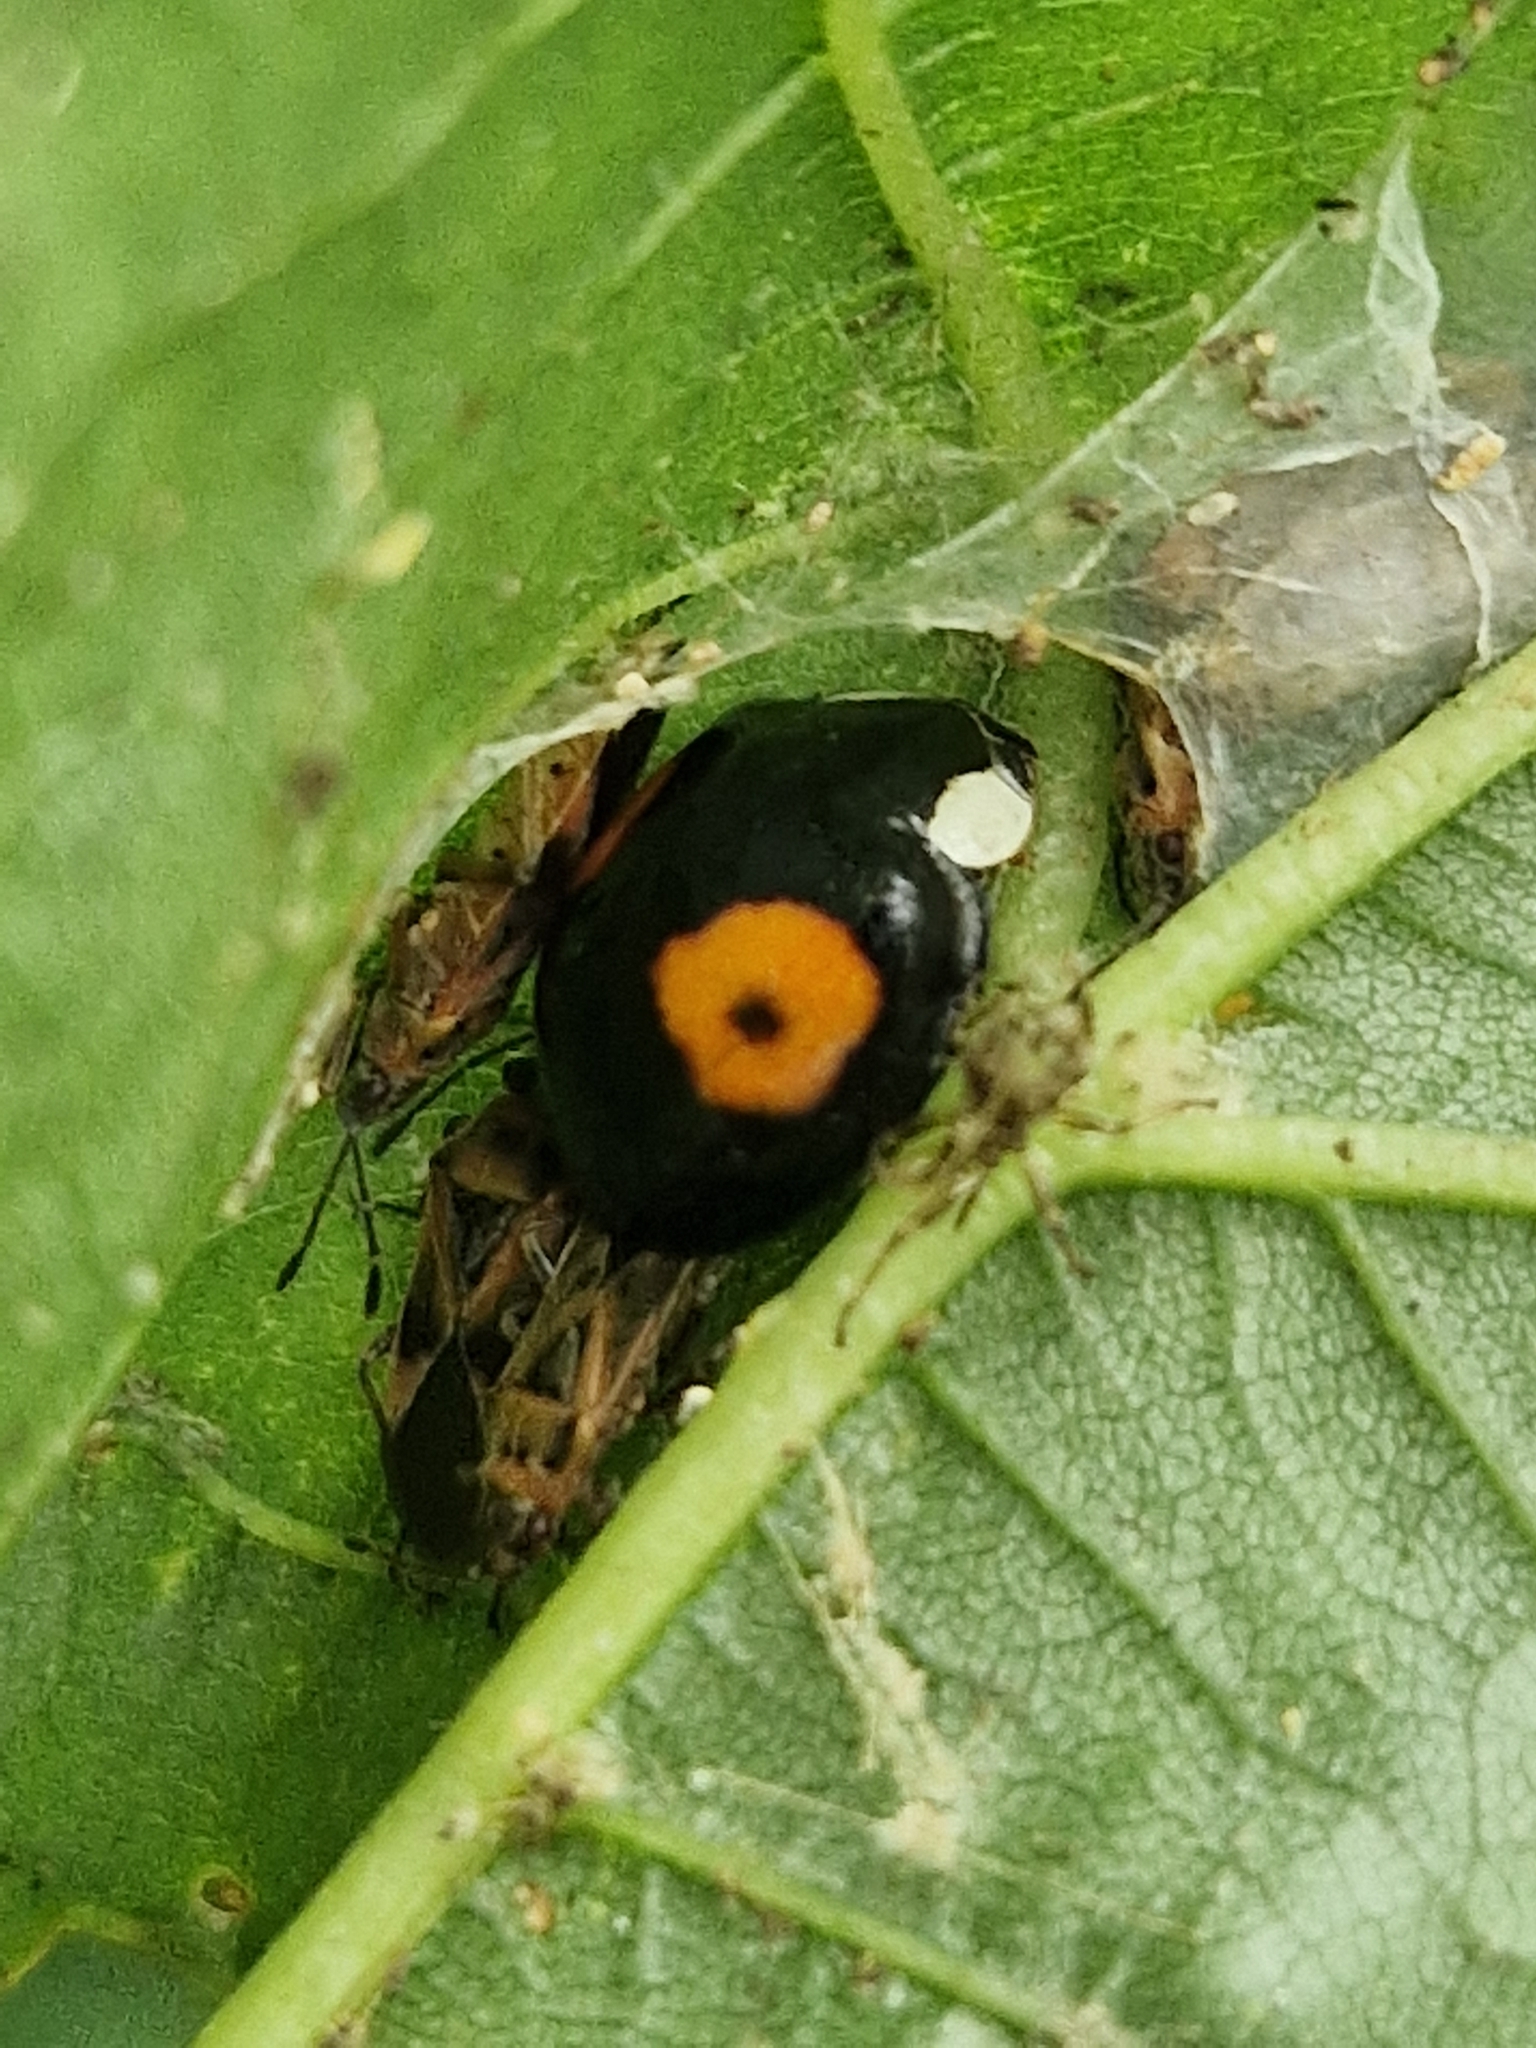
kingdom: Animalia
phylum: Arthropoda
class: Insecta
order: Coleoptera
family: Coccinellidae
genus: Harmonia
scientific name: Harmonia axyridis
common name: Harlequin ladybird
